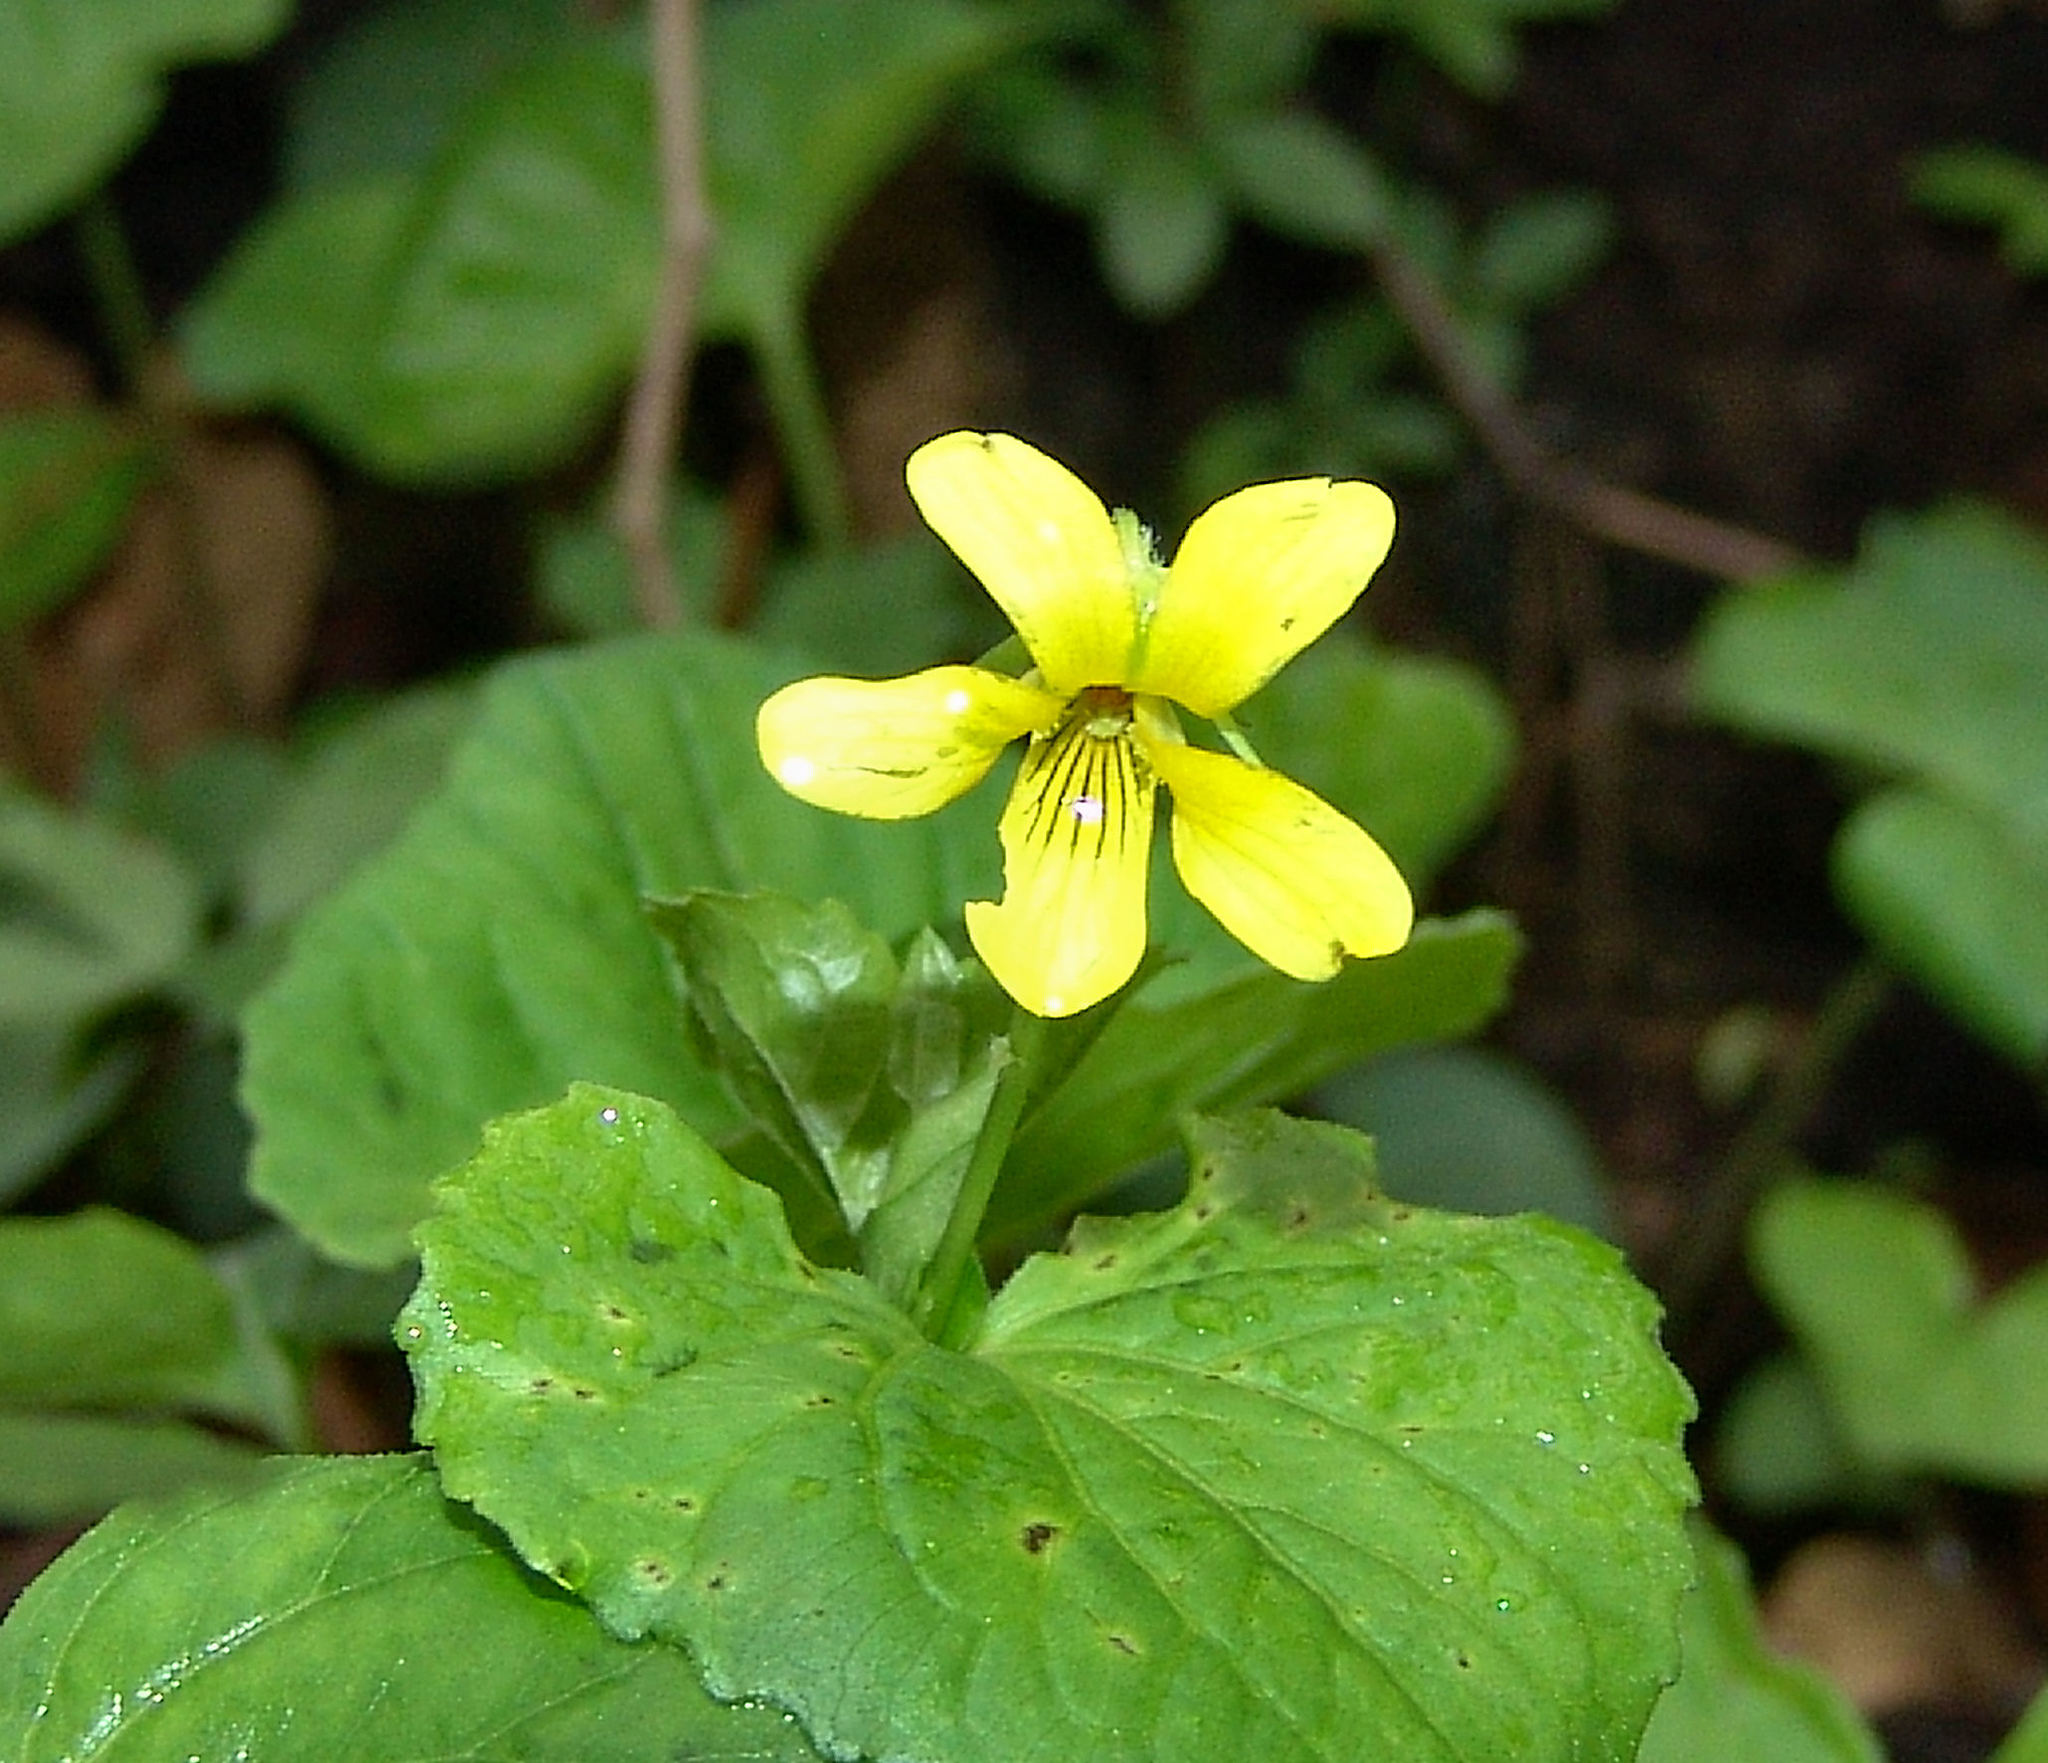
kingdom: Plantae
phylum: Tracheophyta
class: Magnoliopsida
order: Malpighiales
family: Violaceae
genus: Viola
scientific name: Viola eriocarpa
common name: Smooth yellow violet
